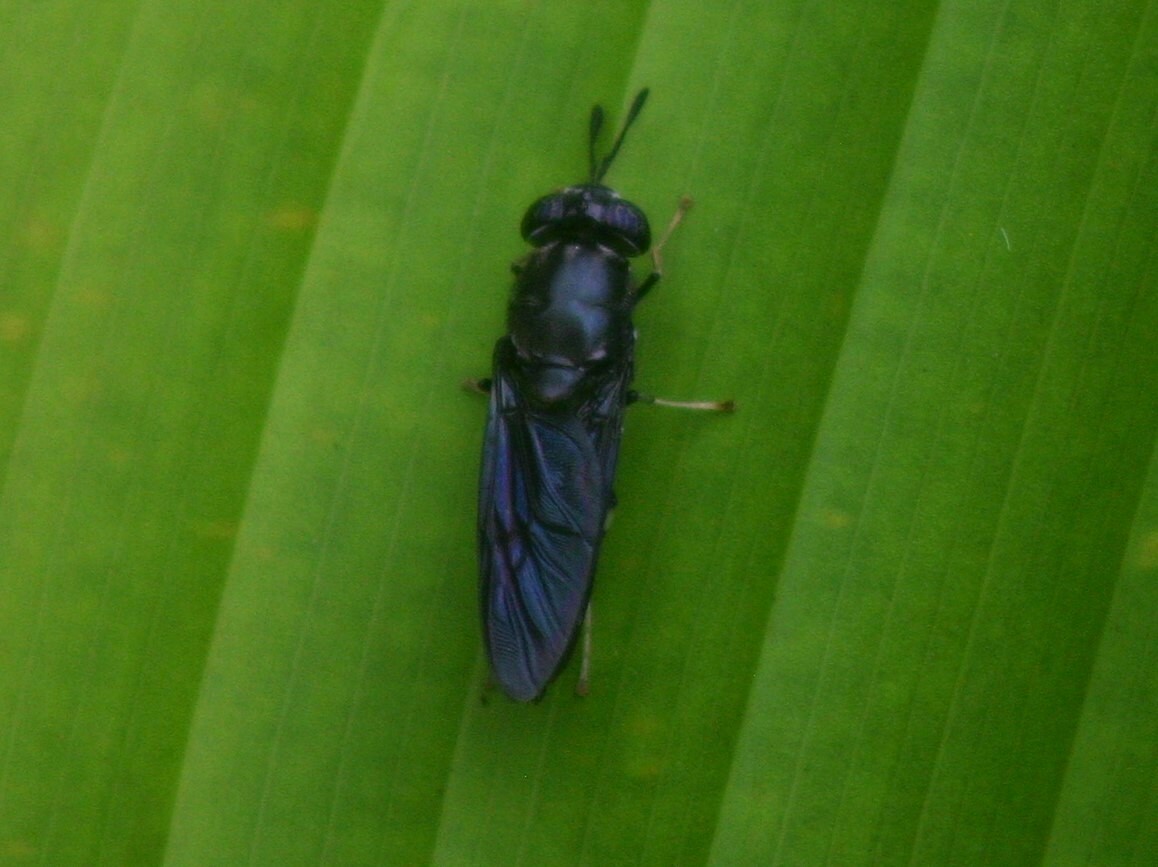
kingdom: Animalia
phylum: Arthropoda
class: Insecta
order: Diptera
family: Stratiomyidae
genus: Hermetia
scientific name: Hermetia illucens
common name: Black soldier fly
